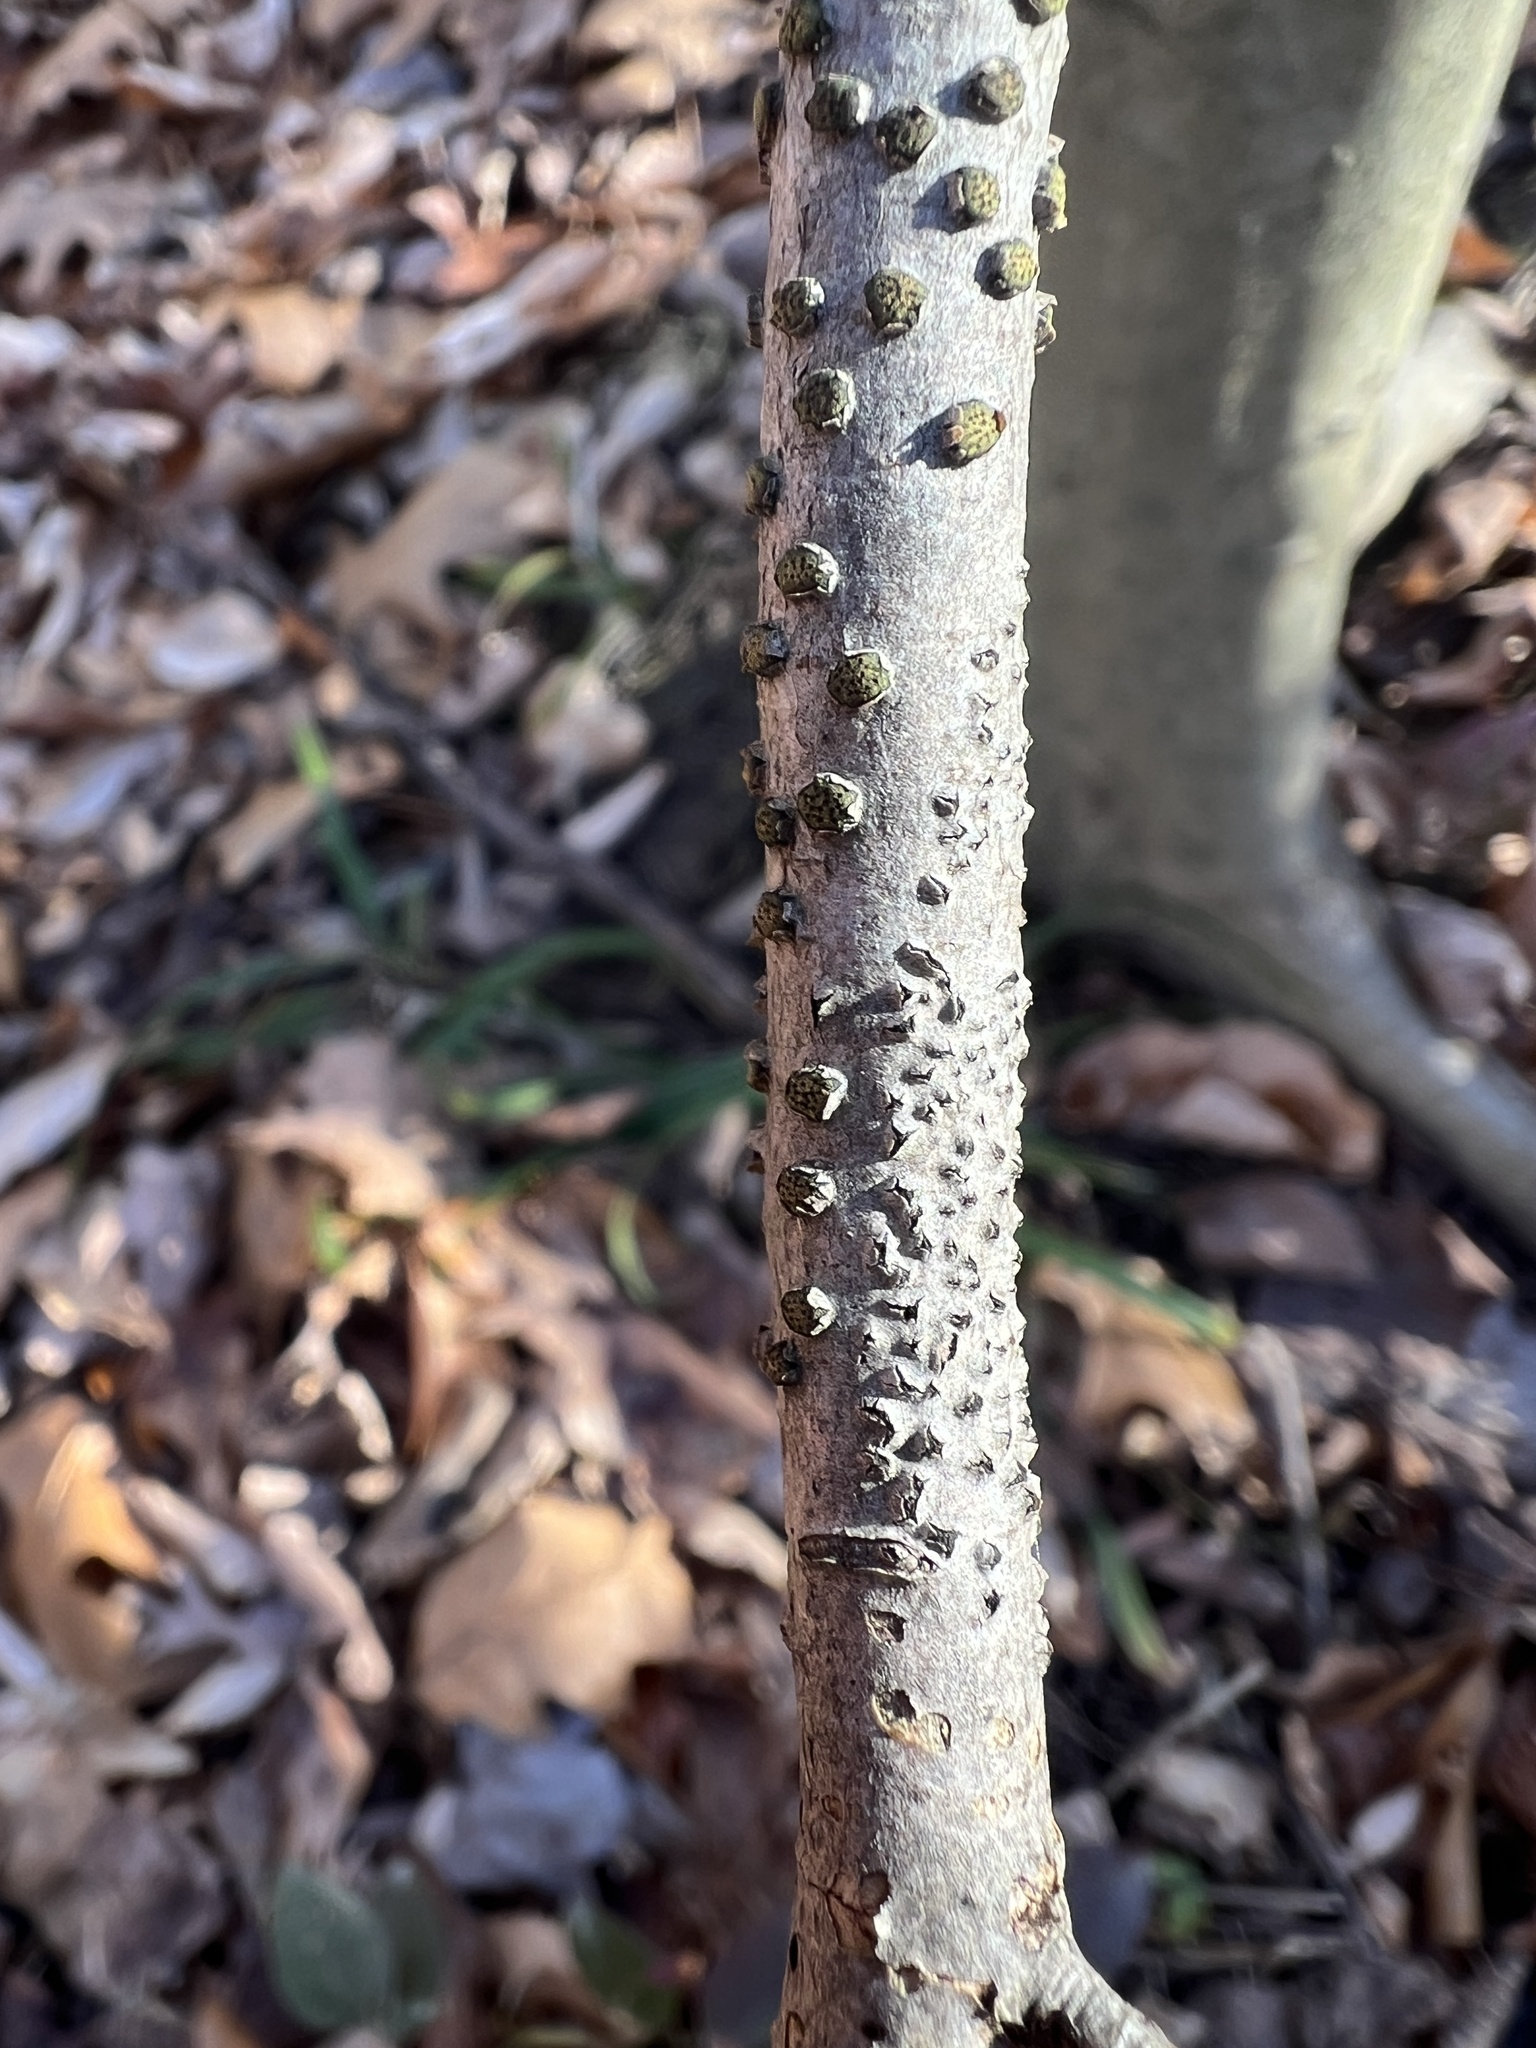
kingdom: Fungi
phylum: Ascomycota
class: Sordariomycetes
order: Xylariales
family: Diatrypaceae
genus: Diatrype
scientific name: Diatrype virescens
